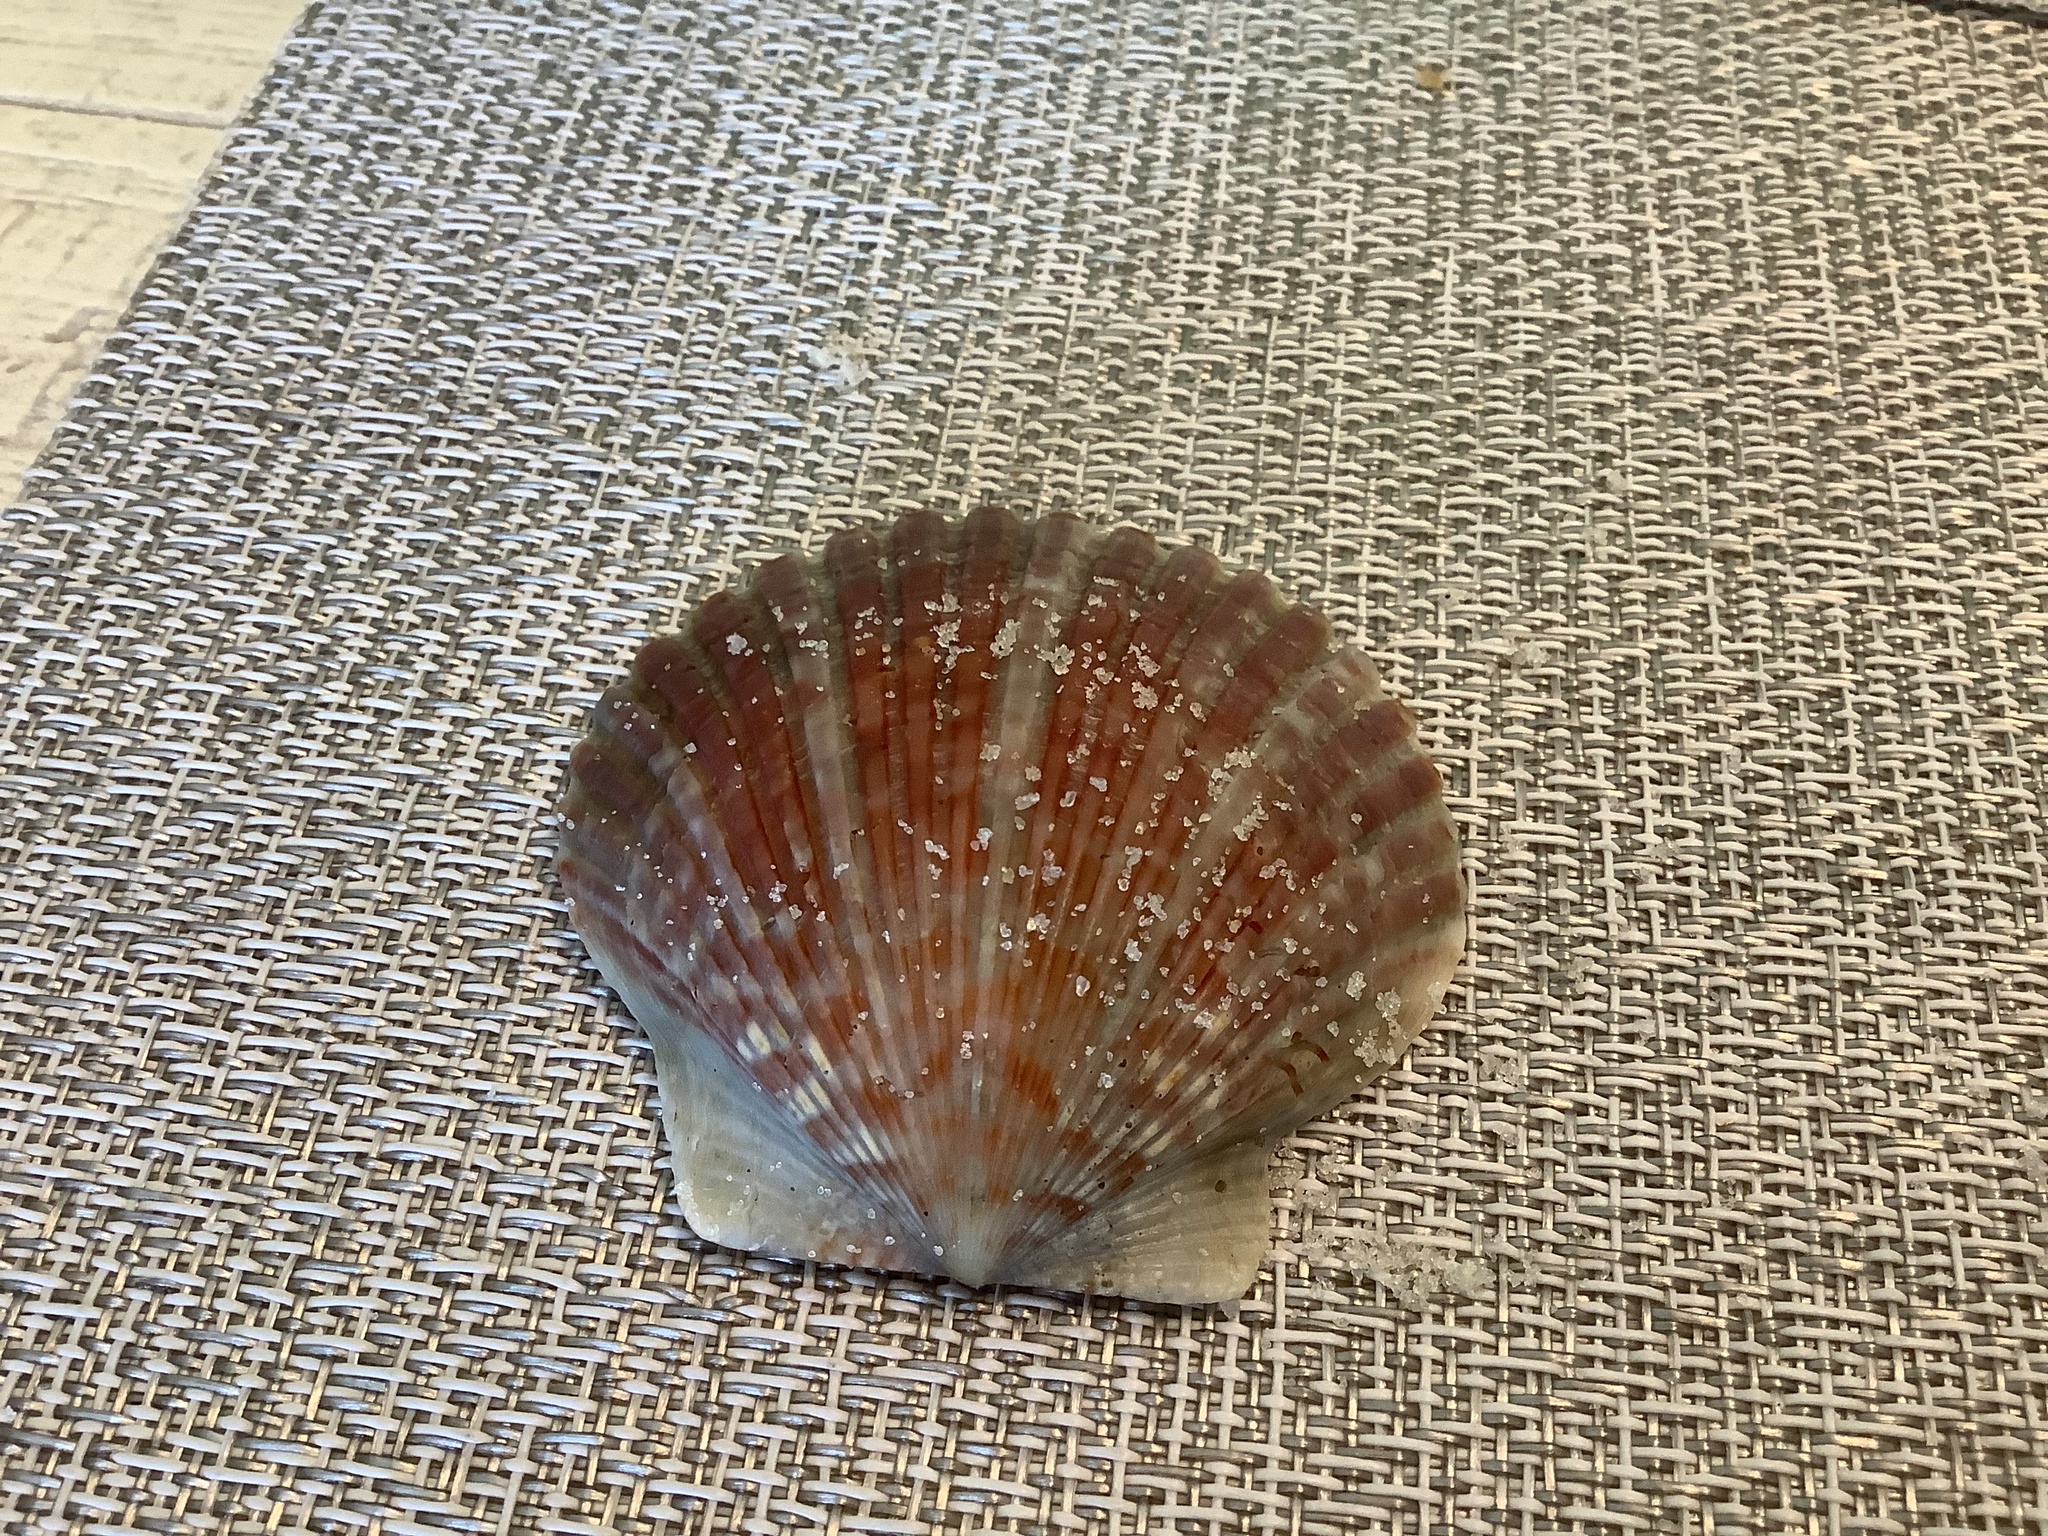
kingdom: Animalia
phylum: Mollusca
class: Bivalvia
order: Pectinida
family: Pectinidae
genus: Argopecten
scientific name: Argopecten irradians
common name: Atlantic bay scallop
